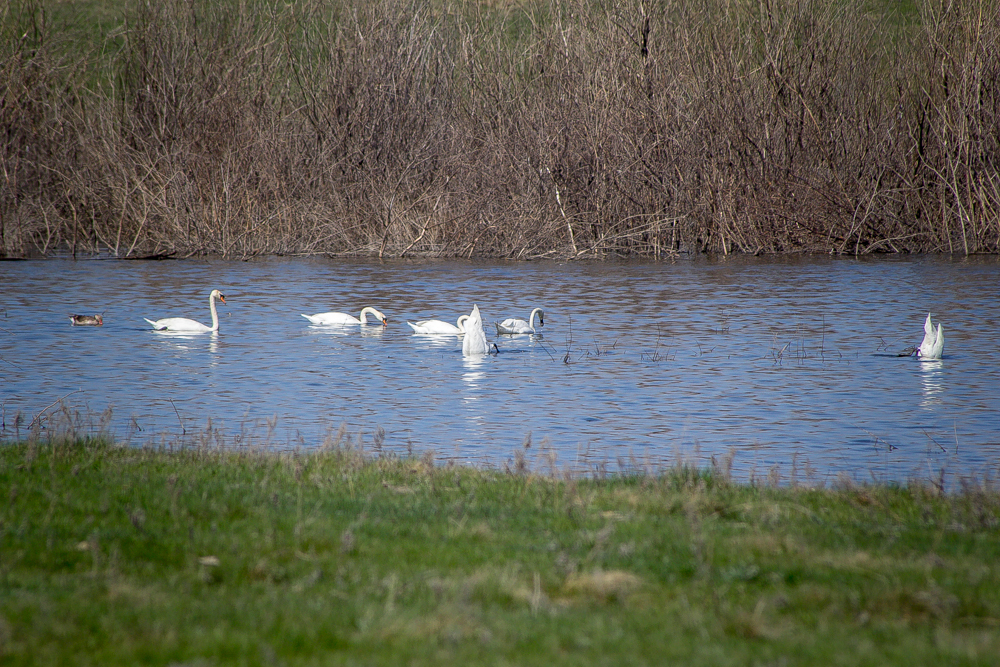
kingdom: Animalia
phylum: Chordata
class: Aves
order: Anseriformes
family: Anatidae
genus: Cygnus
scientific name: Cygnus olor
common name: Mute swan
